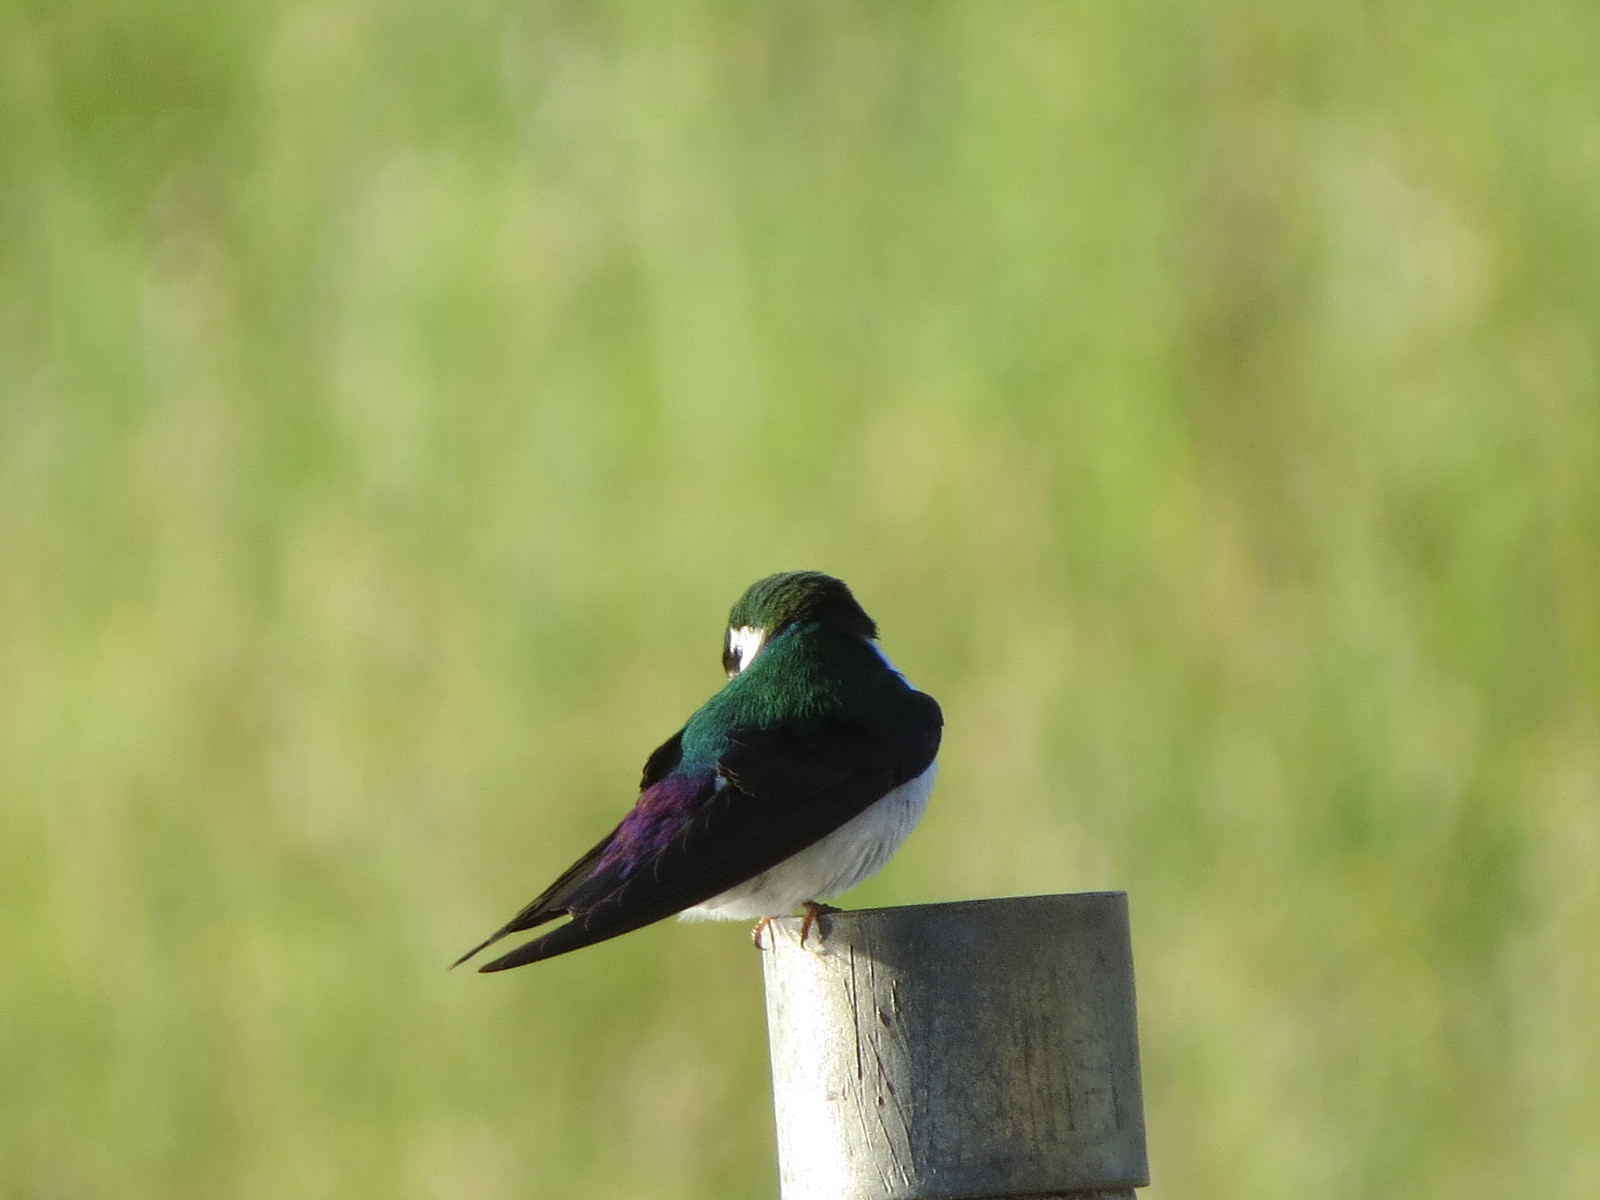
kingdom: Animalia
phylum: Chordata
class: Aves
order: Passeriformes
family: Hirundinidae
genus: Tachycineta
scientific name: Tachycineta thalassina
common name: Violet-green swallow
